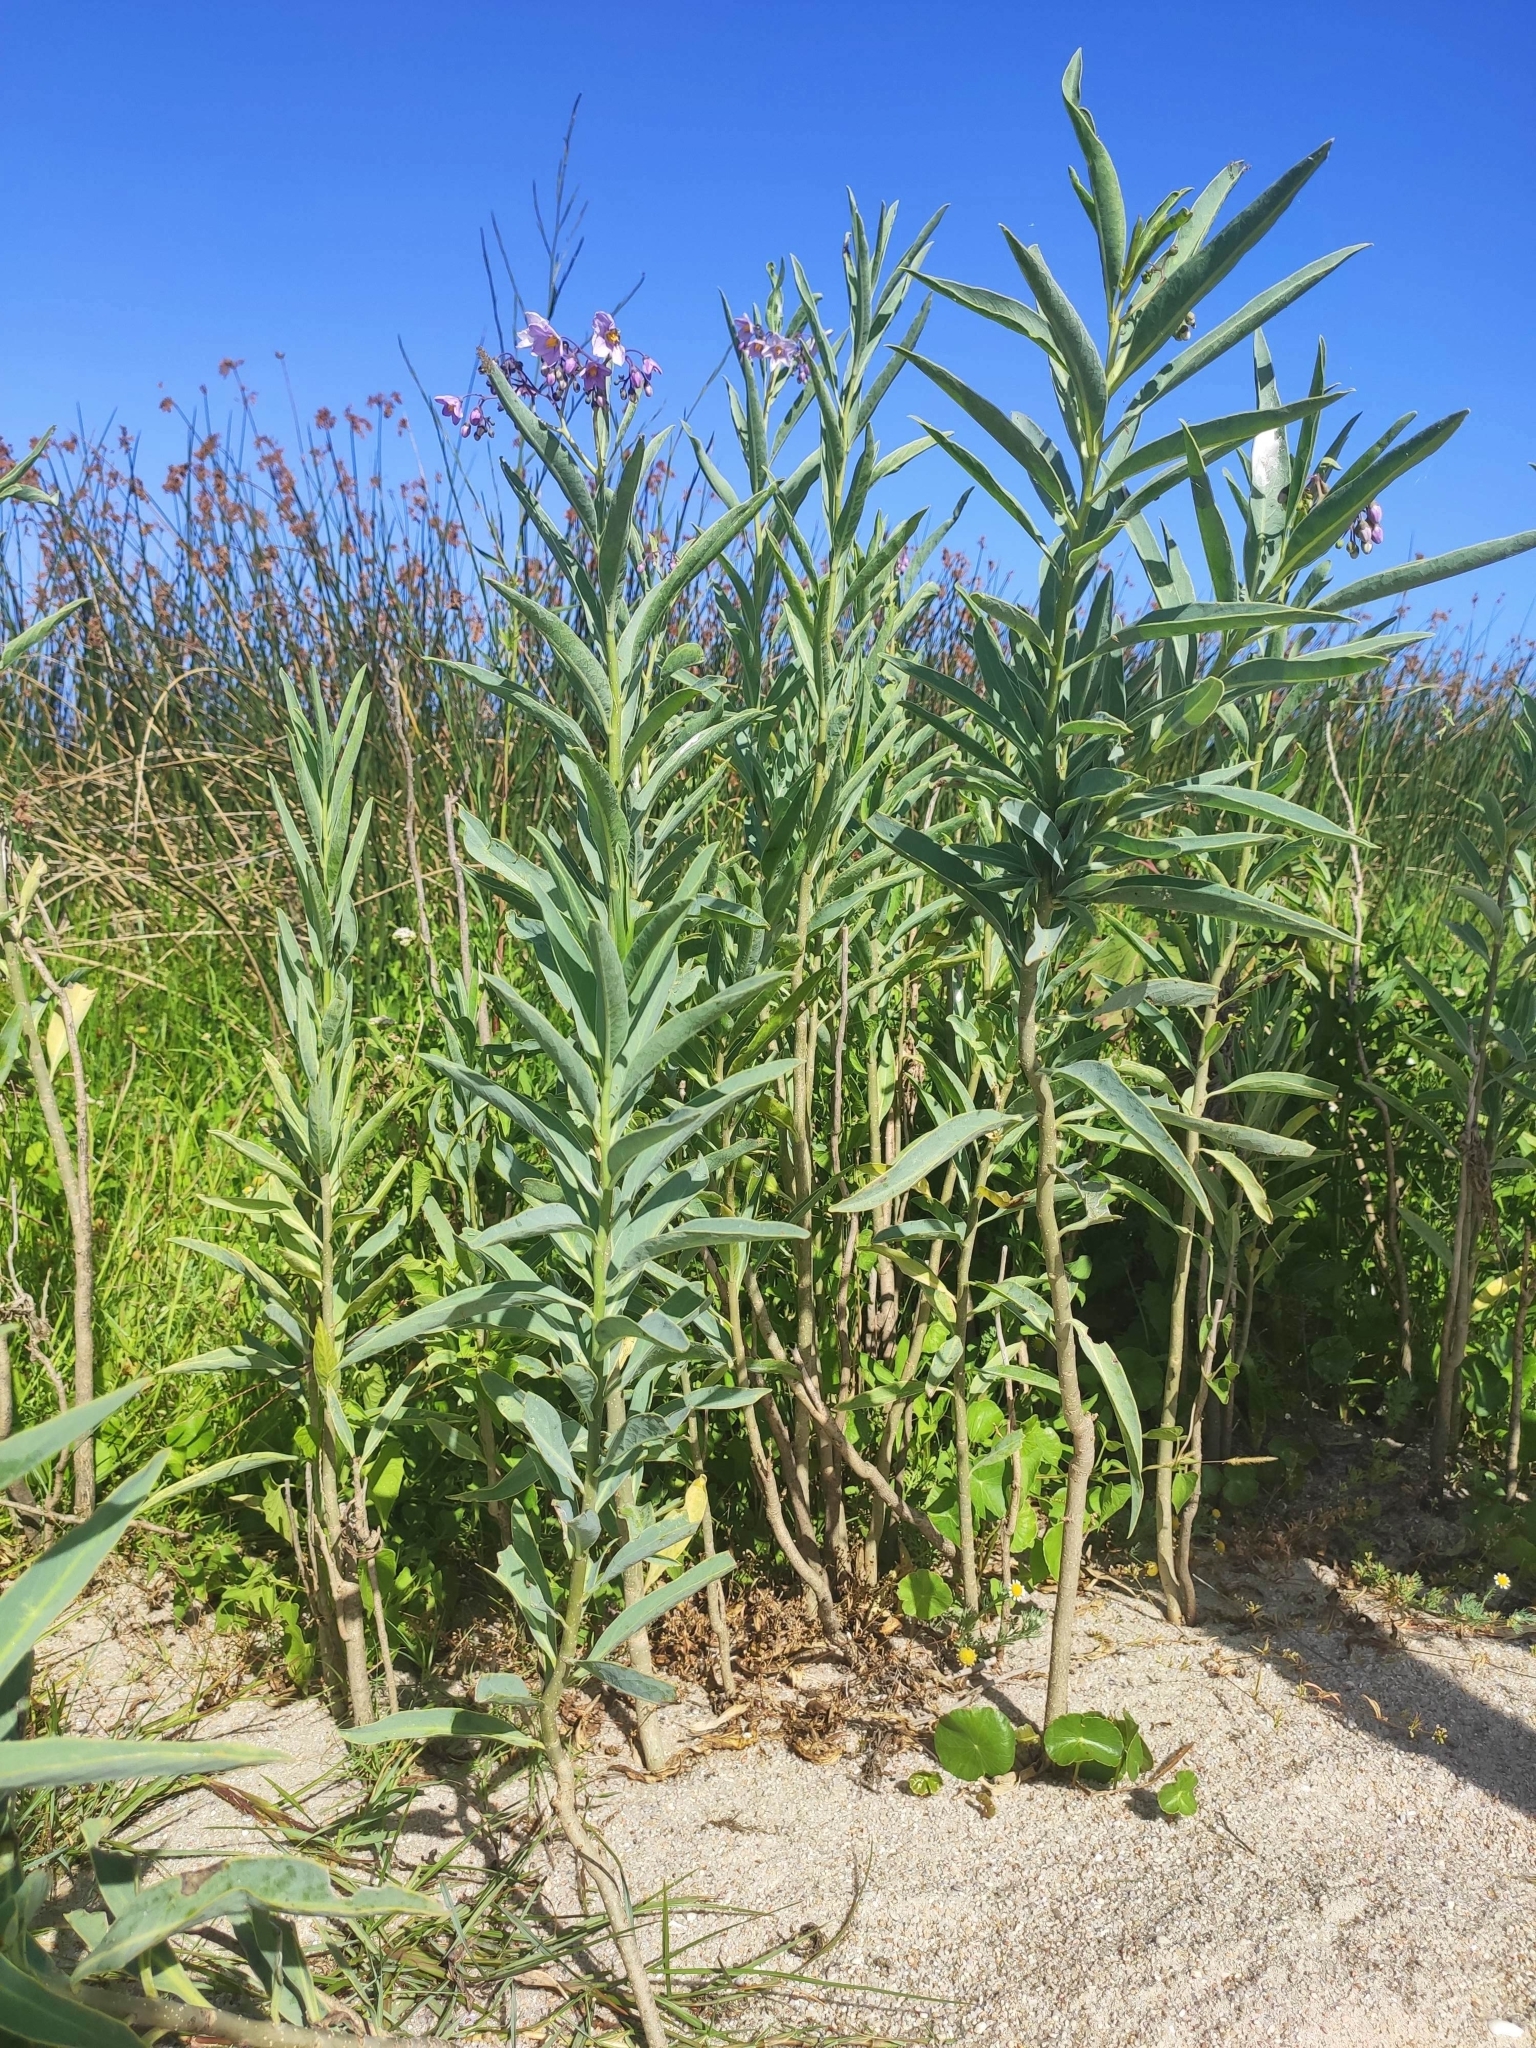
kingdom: Plantae
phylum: Tracheophyta
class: Magnoliopsida
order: Solanales
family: Solanaceae
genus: Solanum
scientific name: Solanum glaucophyllum
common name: Waxyleaf nightshade
